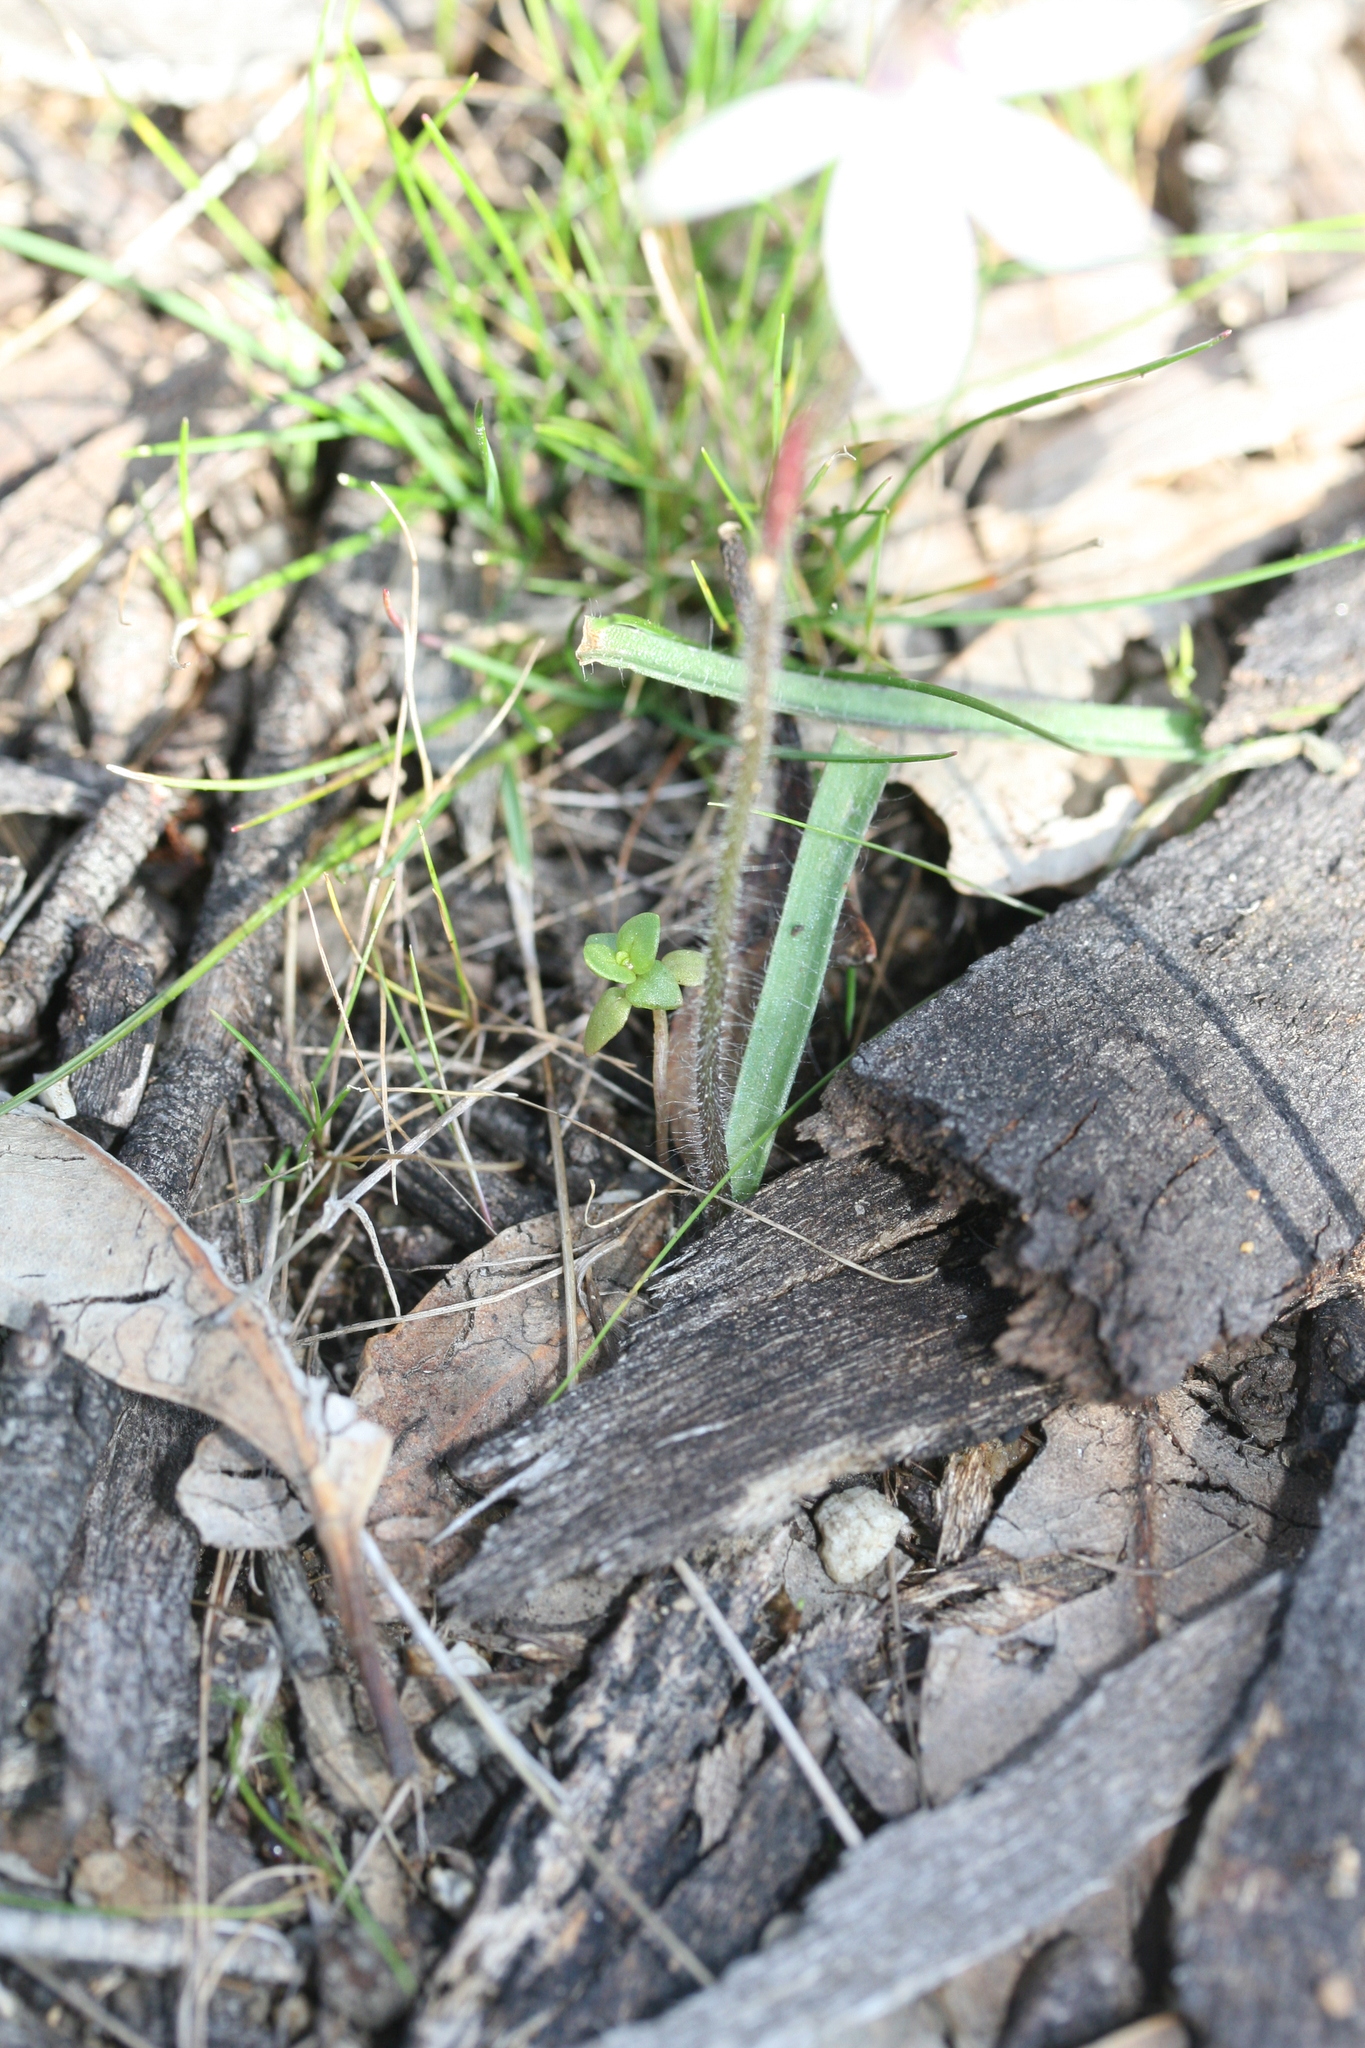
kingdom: Plantae
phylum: Tracheophyta
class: Liliopsida
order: Asparagales
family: Orchidaceae
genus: Caladenia
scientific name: Caladenia saccharata
